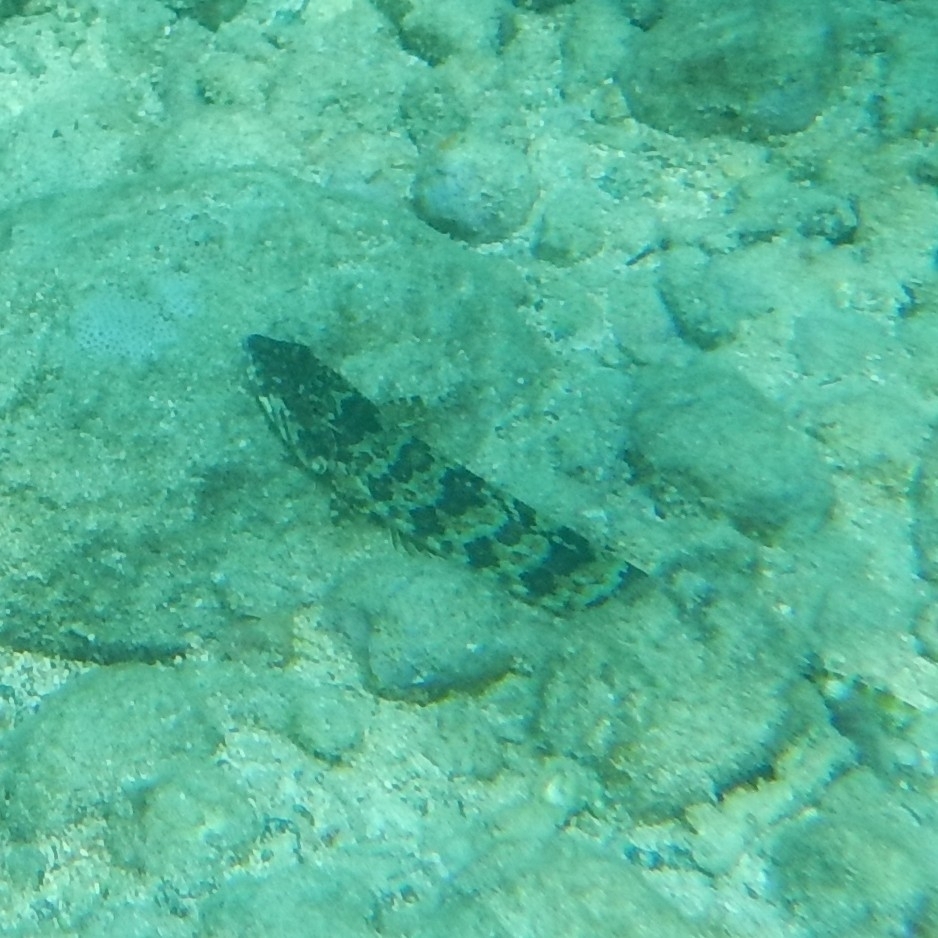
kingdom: Animalia
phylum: Chordata
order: Aulopiformes
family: Synodontidae
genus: Synodus
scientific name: Synodus intermedius
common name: Sand diver
